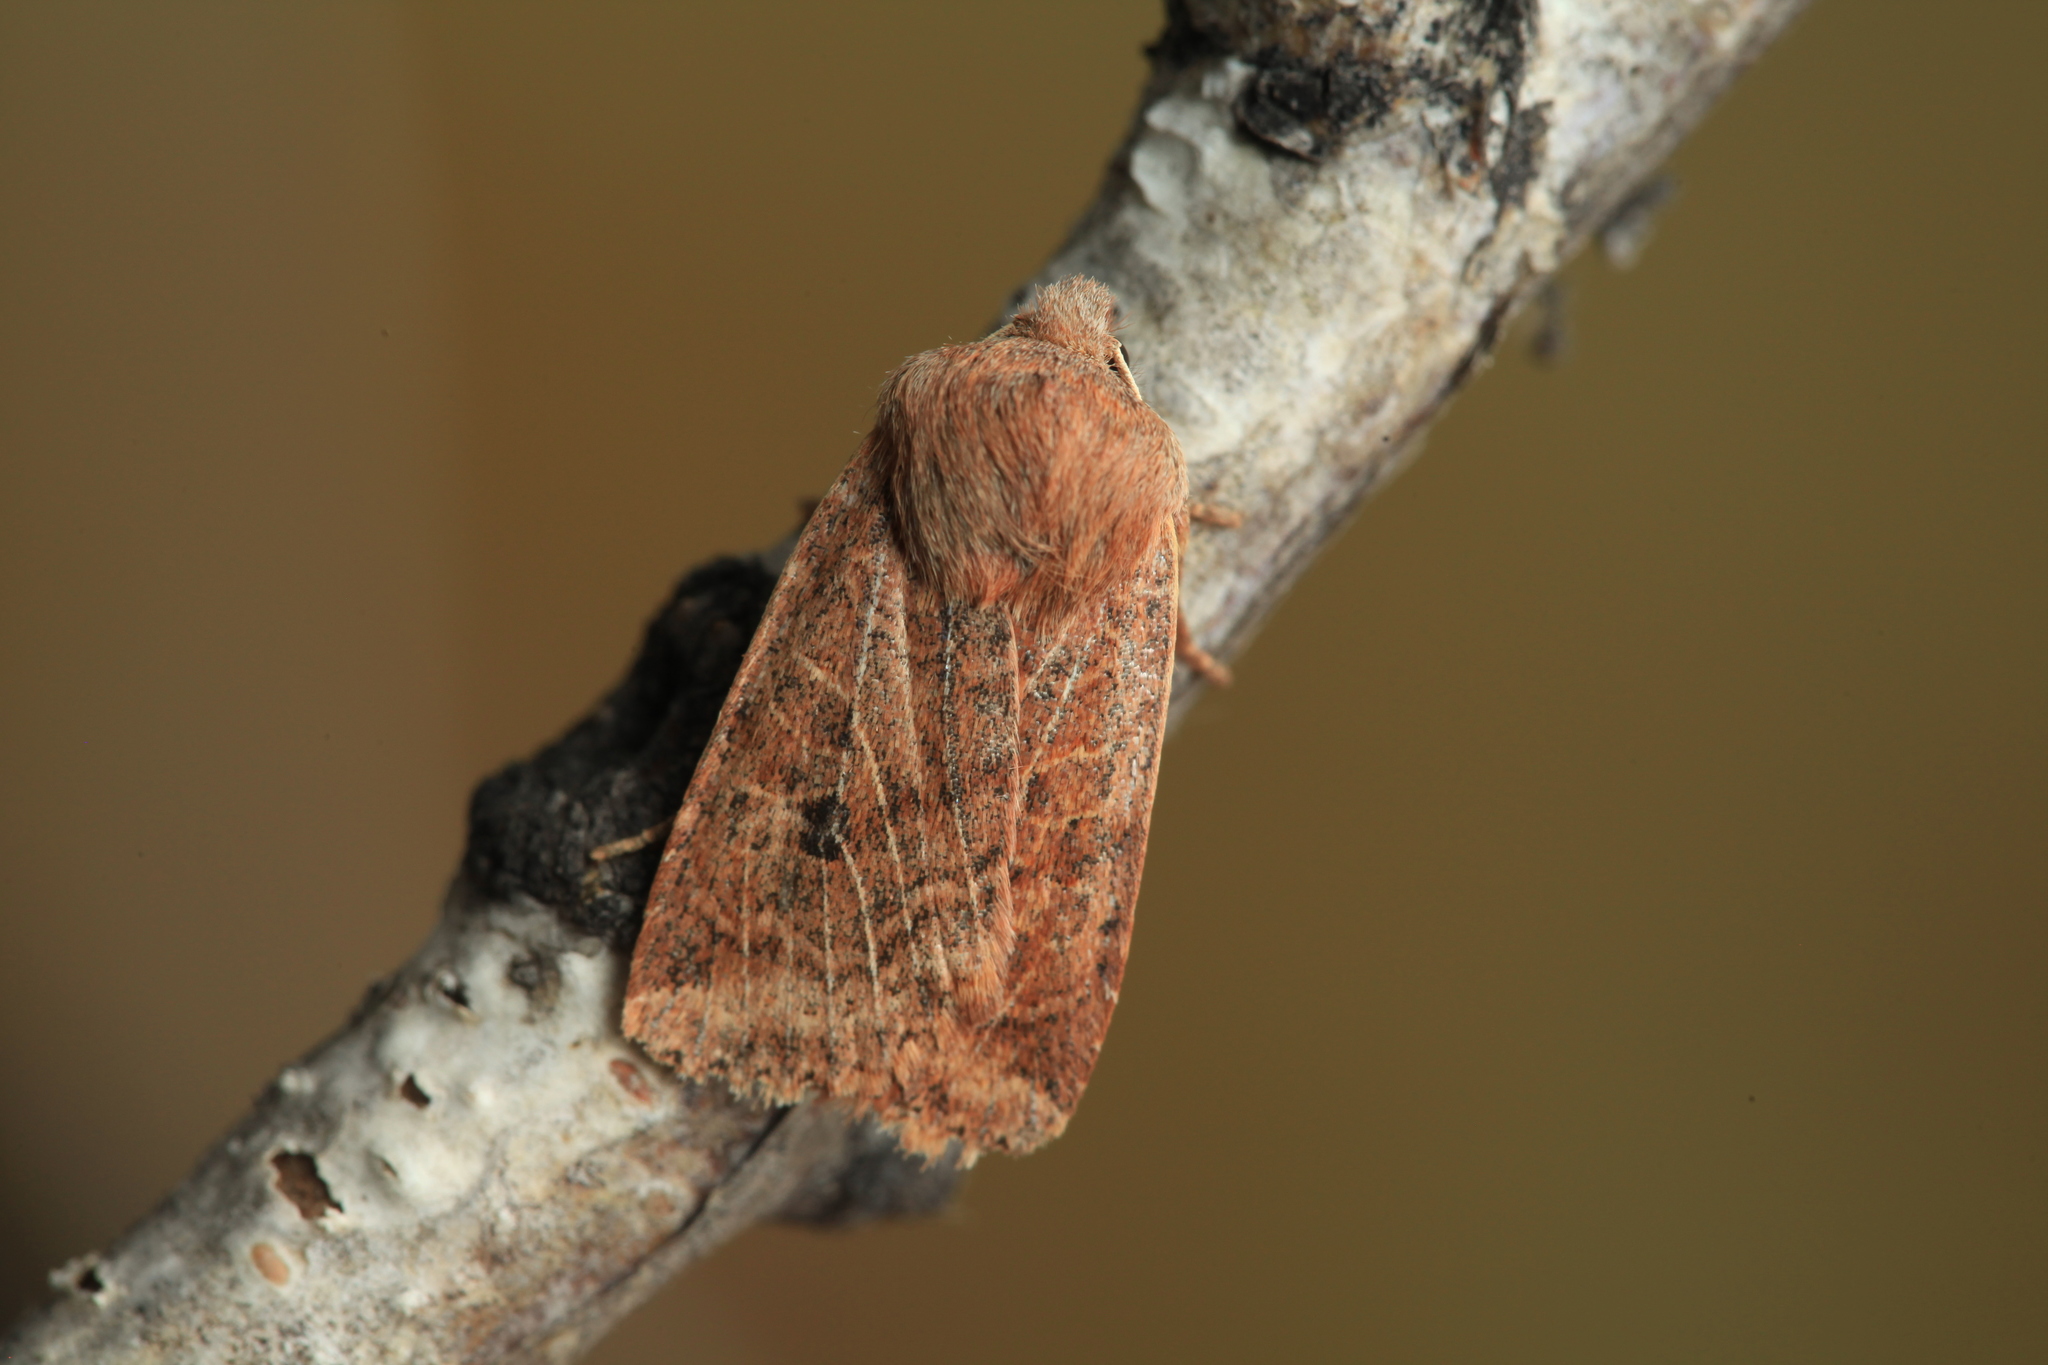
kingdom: Animalia
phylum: Arthropoda
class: Insecta
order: Lepidoptera
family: Noctuidae
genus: Conistra
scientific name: Conistra vaccinii
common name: Chestnut
